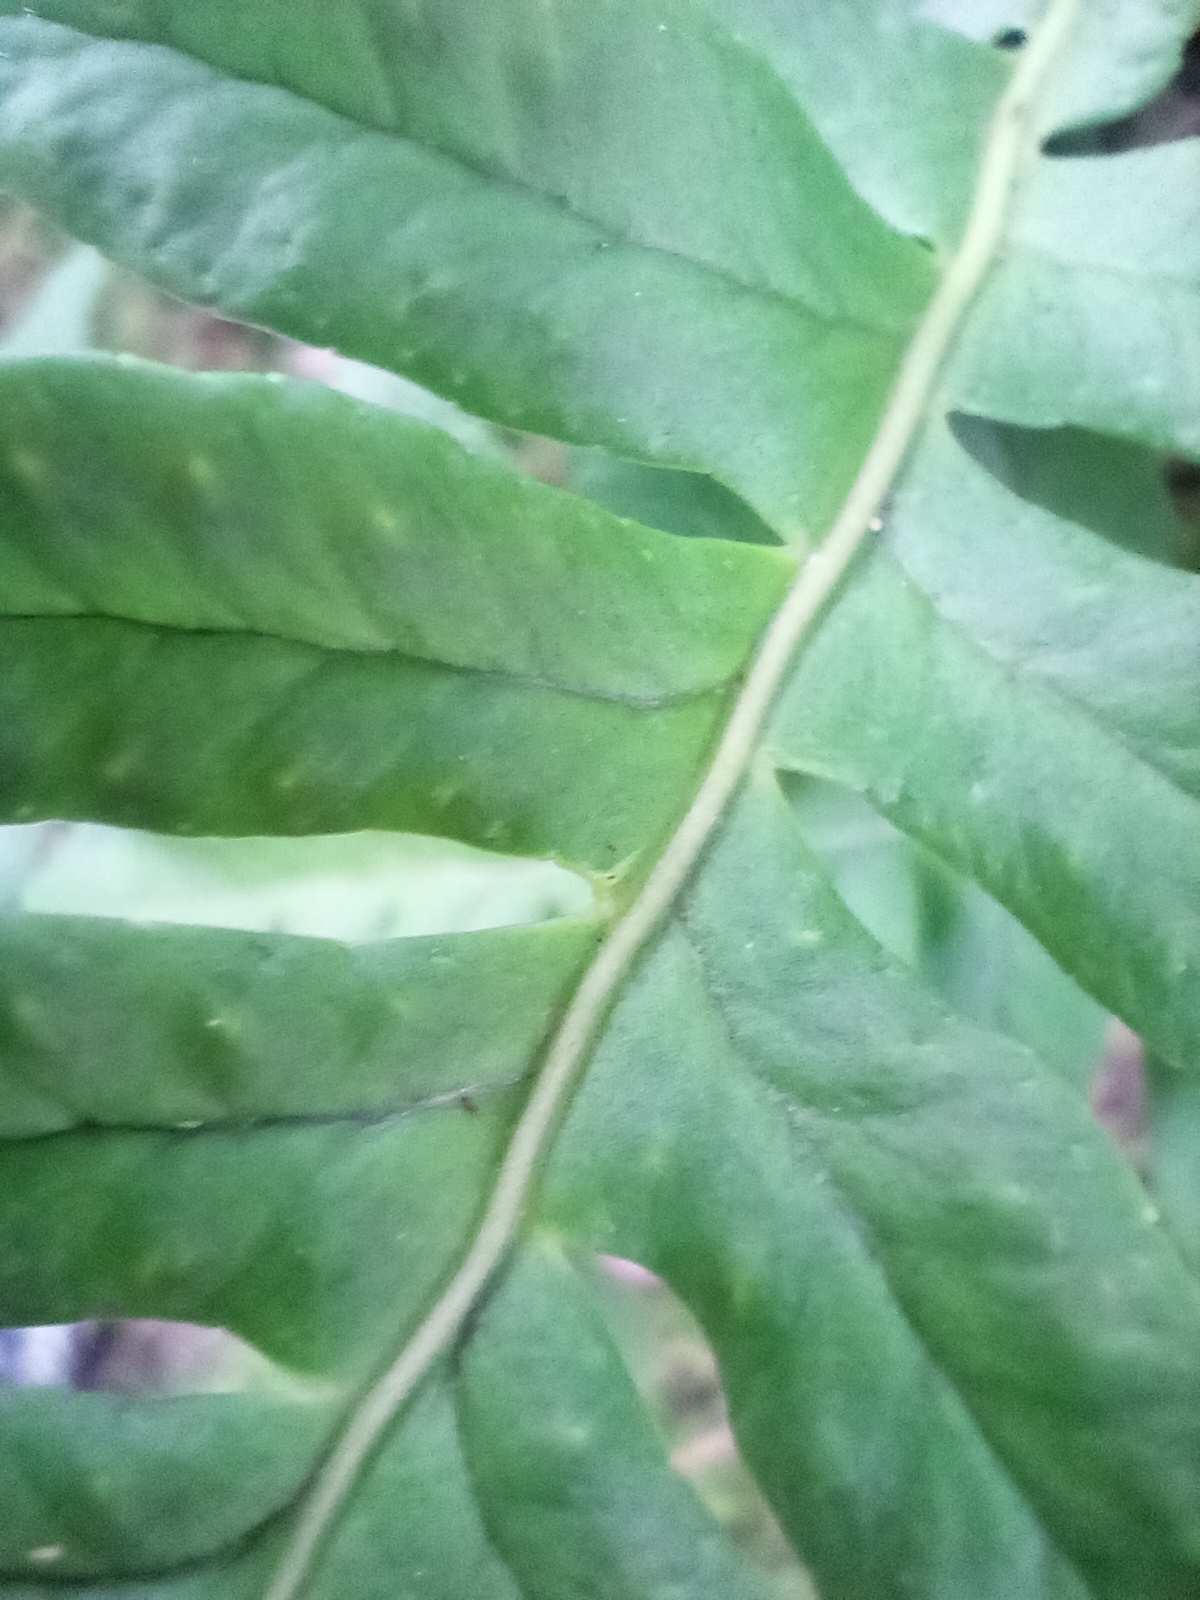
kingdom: Plantae
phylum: Tracheophyta
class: Polypodiopsida
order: Polypodiales
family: Polypodiaceae
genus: Polypodium
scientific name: Polypodium vulgare
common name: Common polypody
